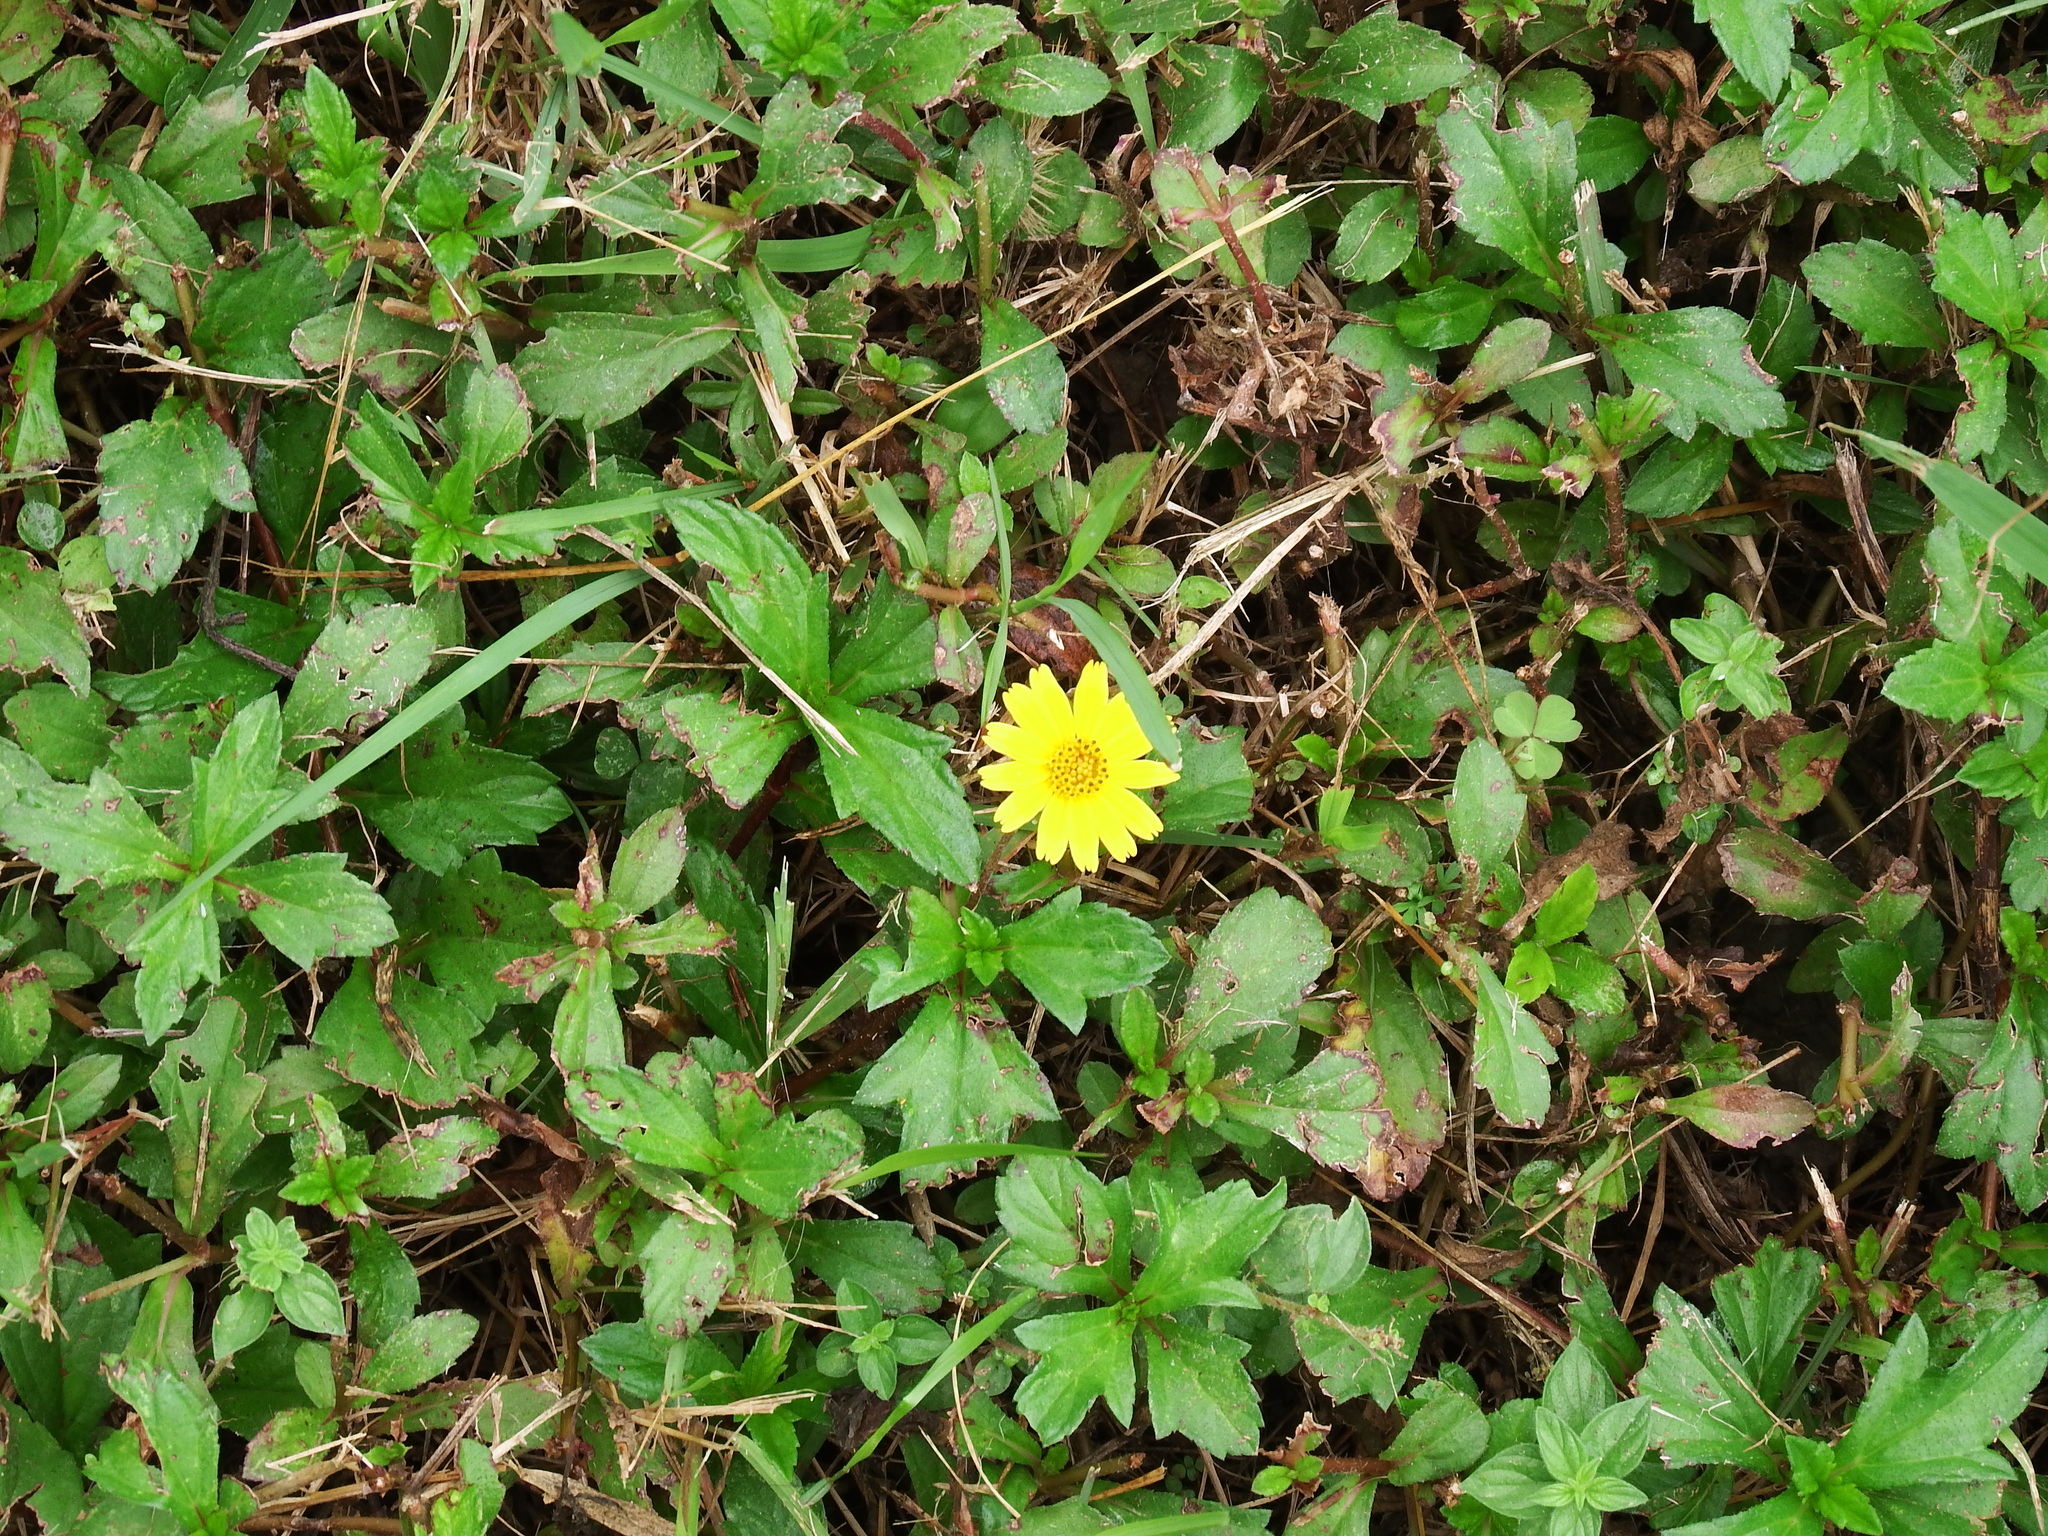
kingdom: Plantae
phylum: Tracheophyta
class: Magnoliopsida
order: Asterales
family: Asteraceae
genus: Sphagneticola
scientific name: Sphagneticola trilobata
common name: Bay biscayne creeping-oxeye
